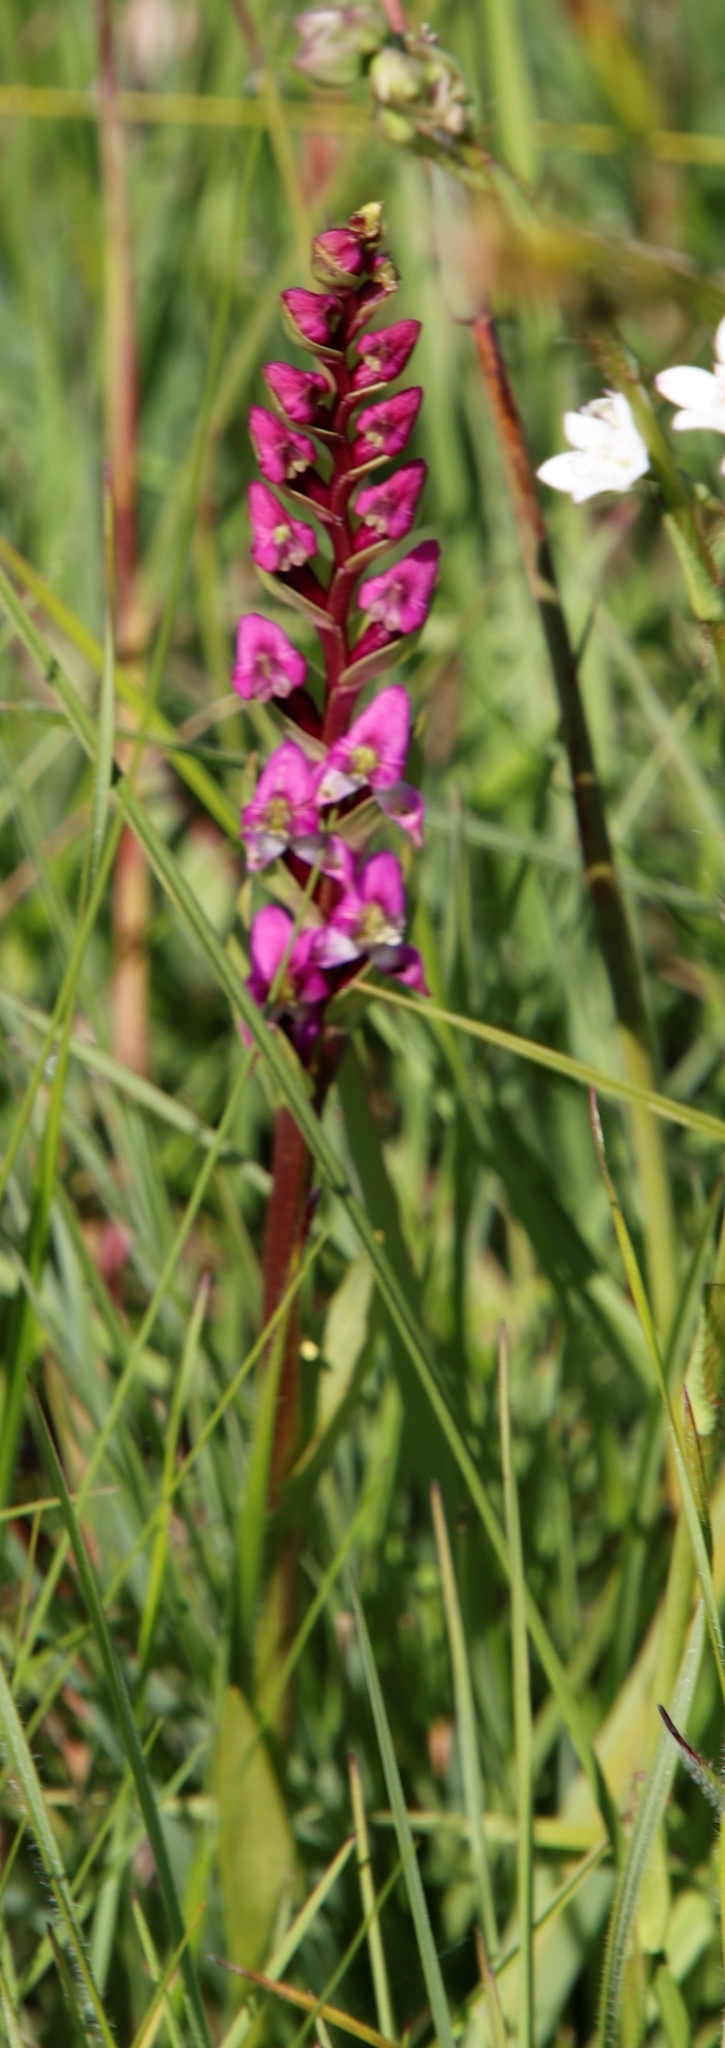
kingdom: Plantae
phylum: Tracheophyta
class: Liliopsida
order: Asparagales
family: Orchidaceae
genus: Disperis
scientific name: Disperis tysonii
